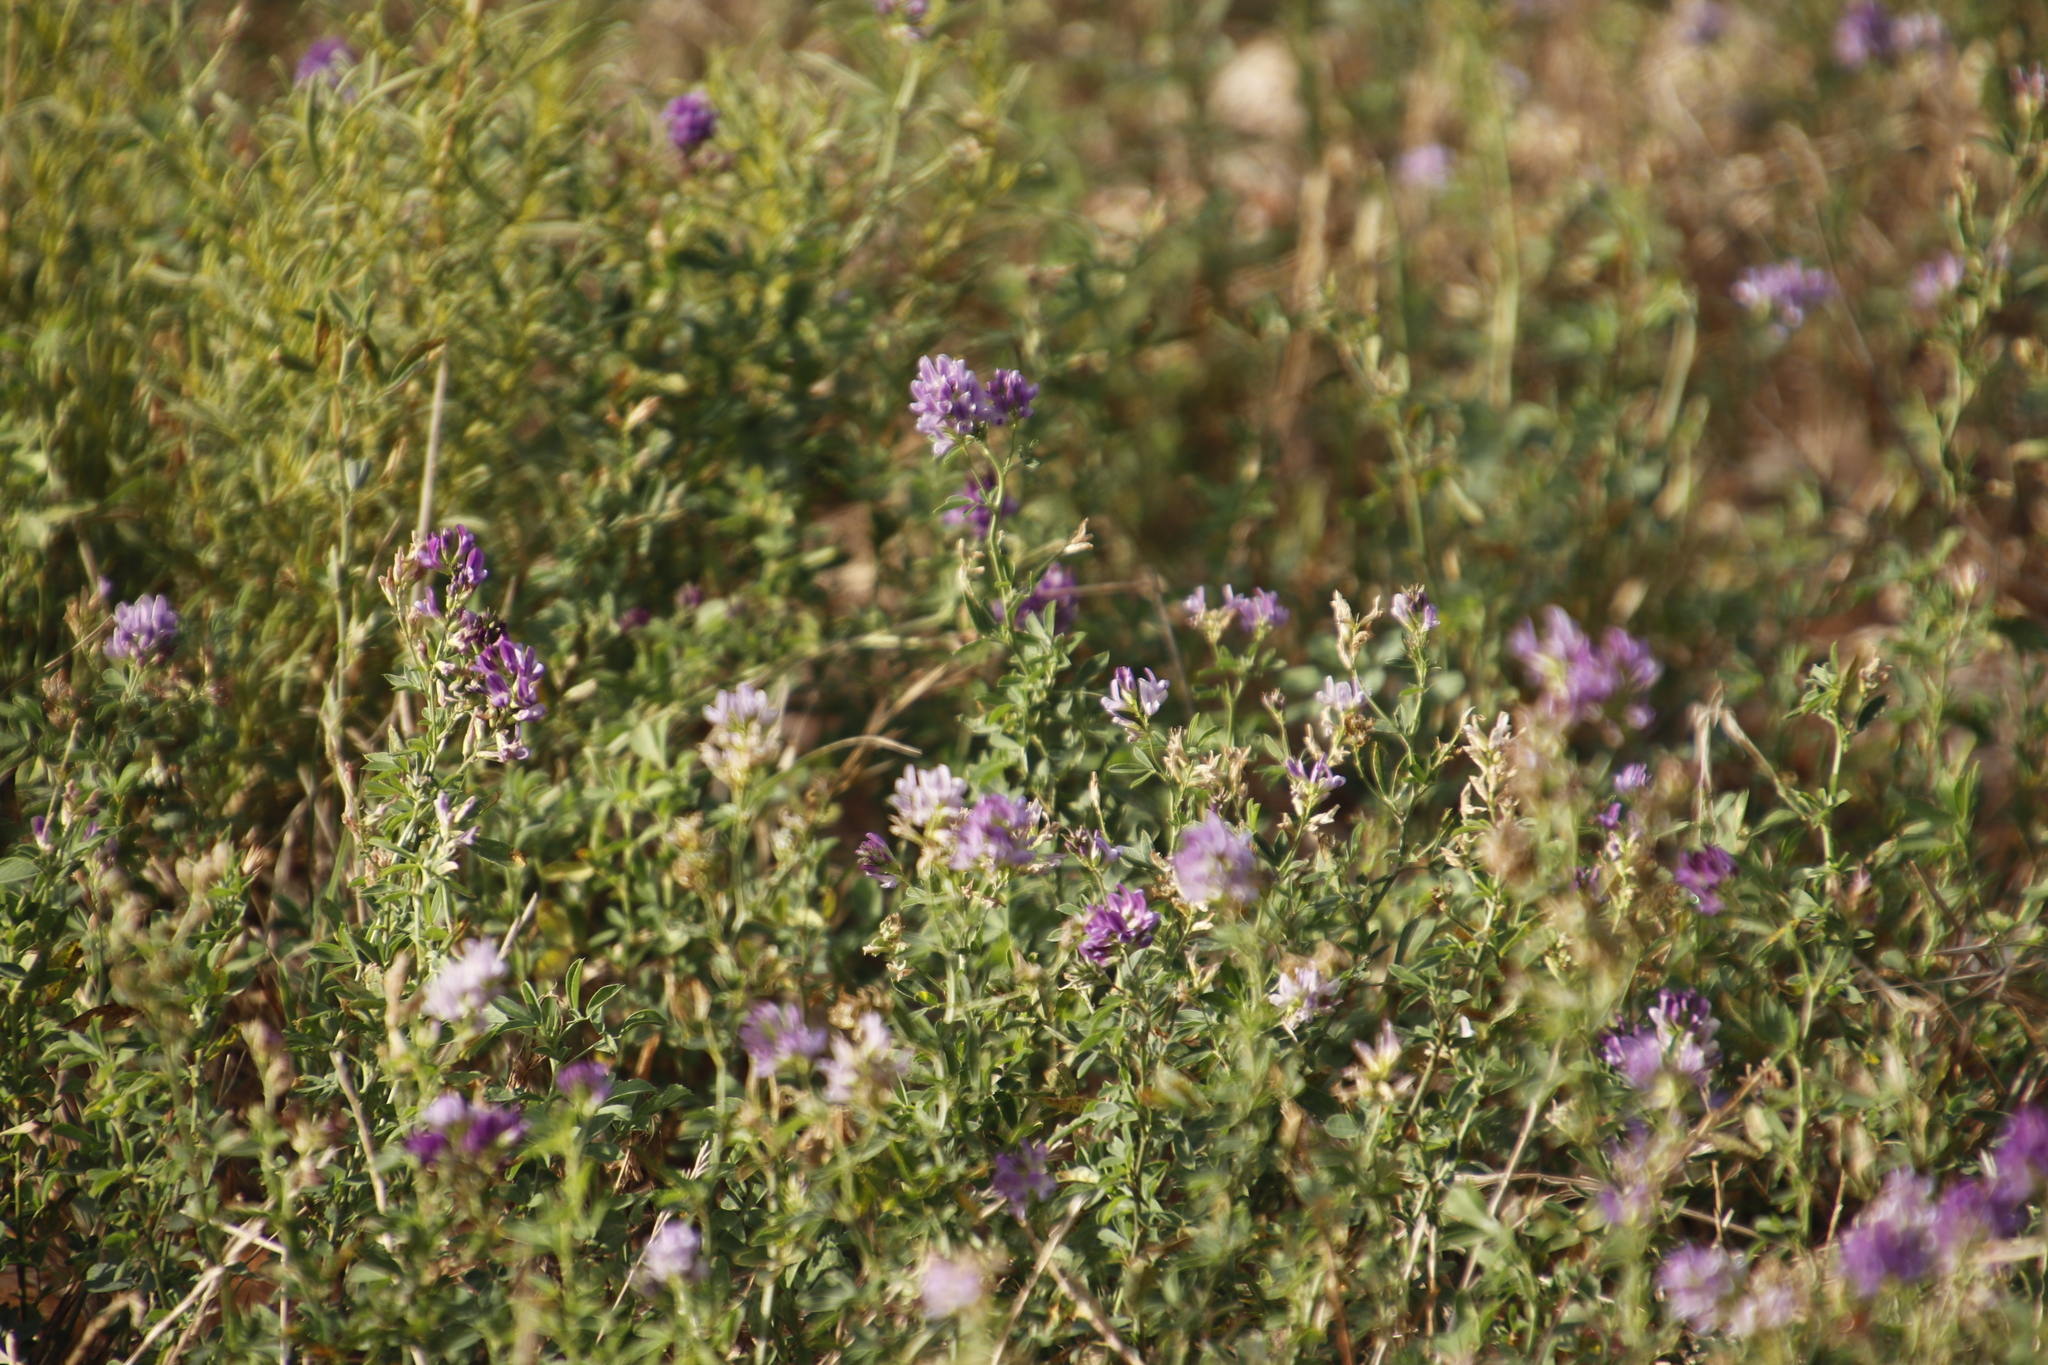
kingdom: Plantae
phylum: Tracheophyta
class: Magnoliopsida
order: Fabales
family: Fabaceae
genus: Medicago
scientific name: Medicago sativa
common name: Alfalfa
